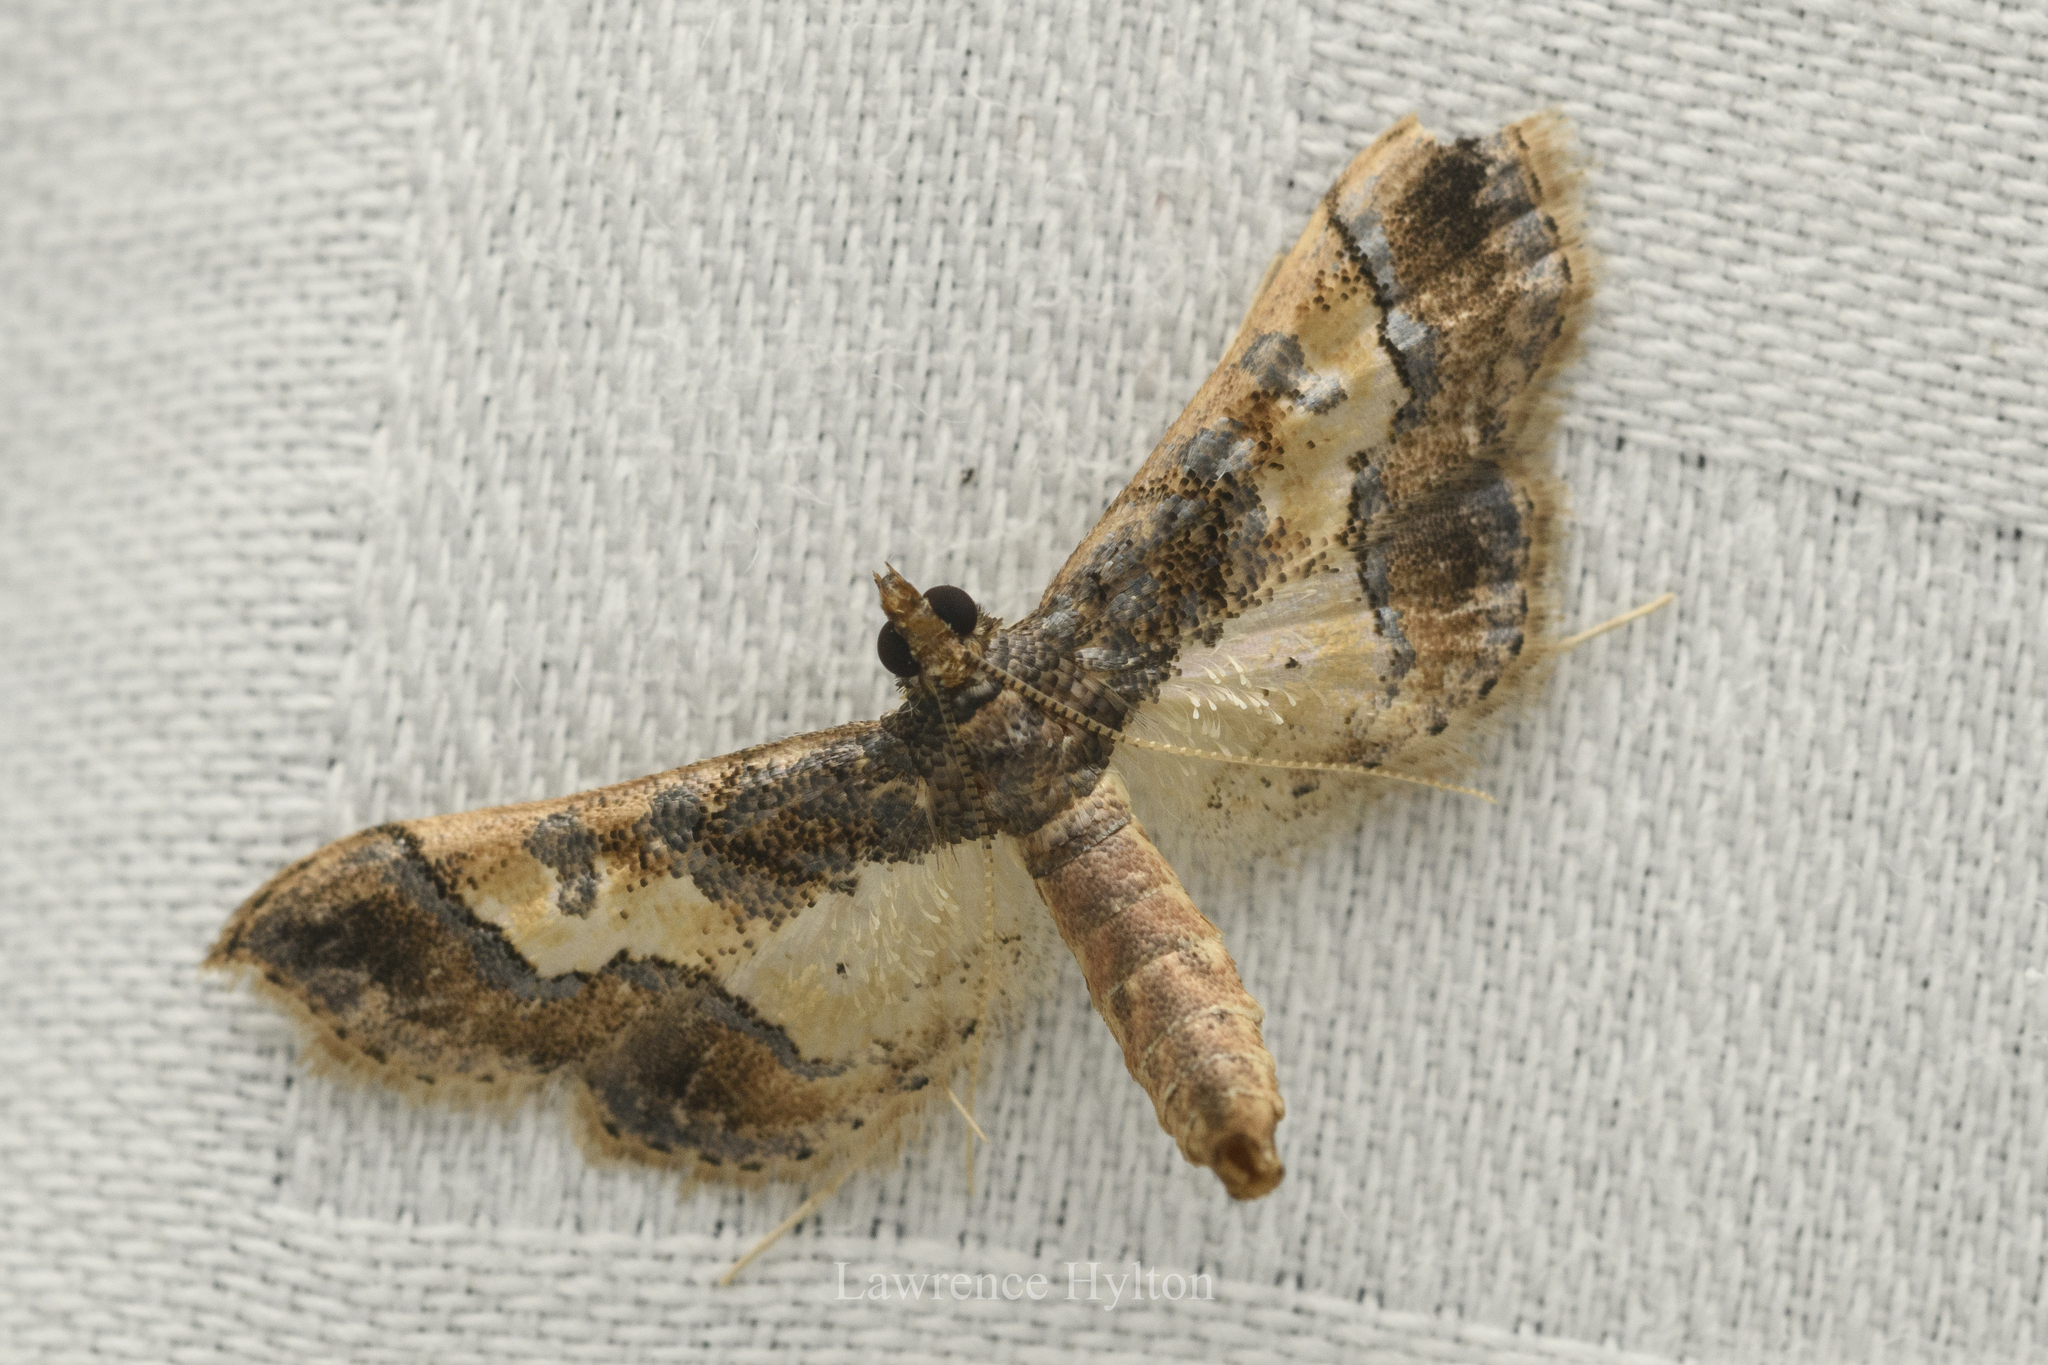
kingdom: Animalia
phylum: Arthropoda
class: Insecta
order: Lepidoptera
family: Crambidae
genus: Hydriris
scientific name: Hydriris ornatalis
